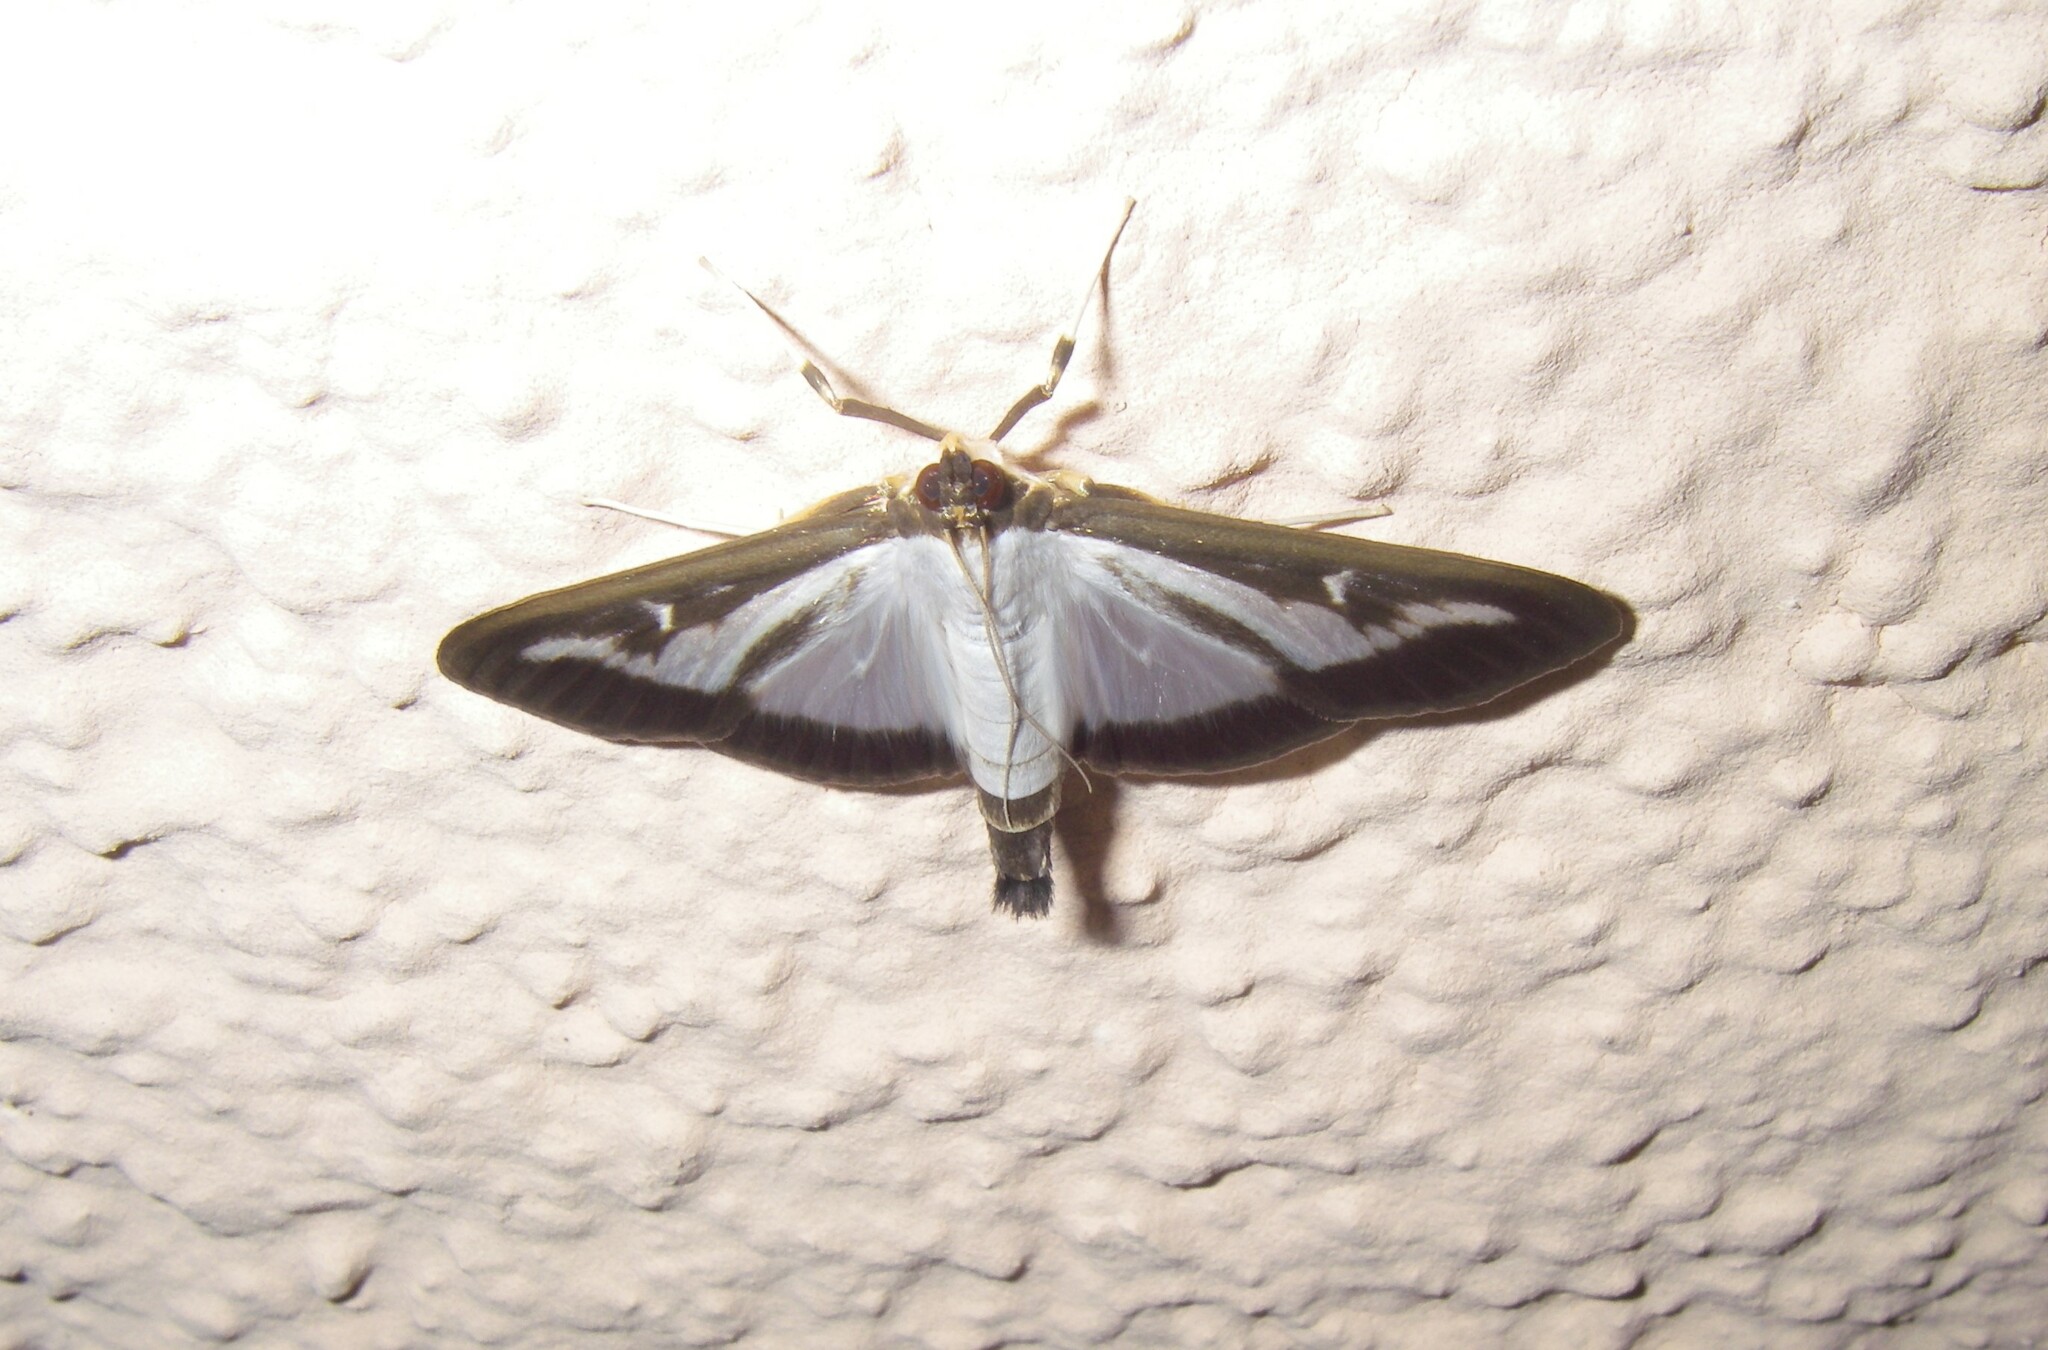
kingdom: Animalia
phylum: Arthropoda
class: Insecta
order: Lepidoptera
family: Crambidae
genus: Cydalima
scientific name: Cydalima perspectalis
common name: Box tree moth
